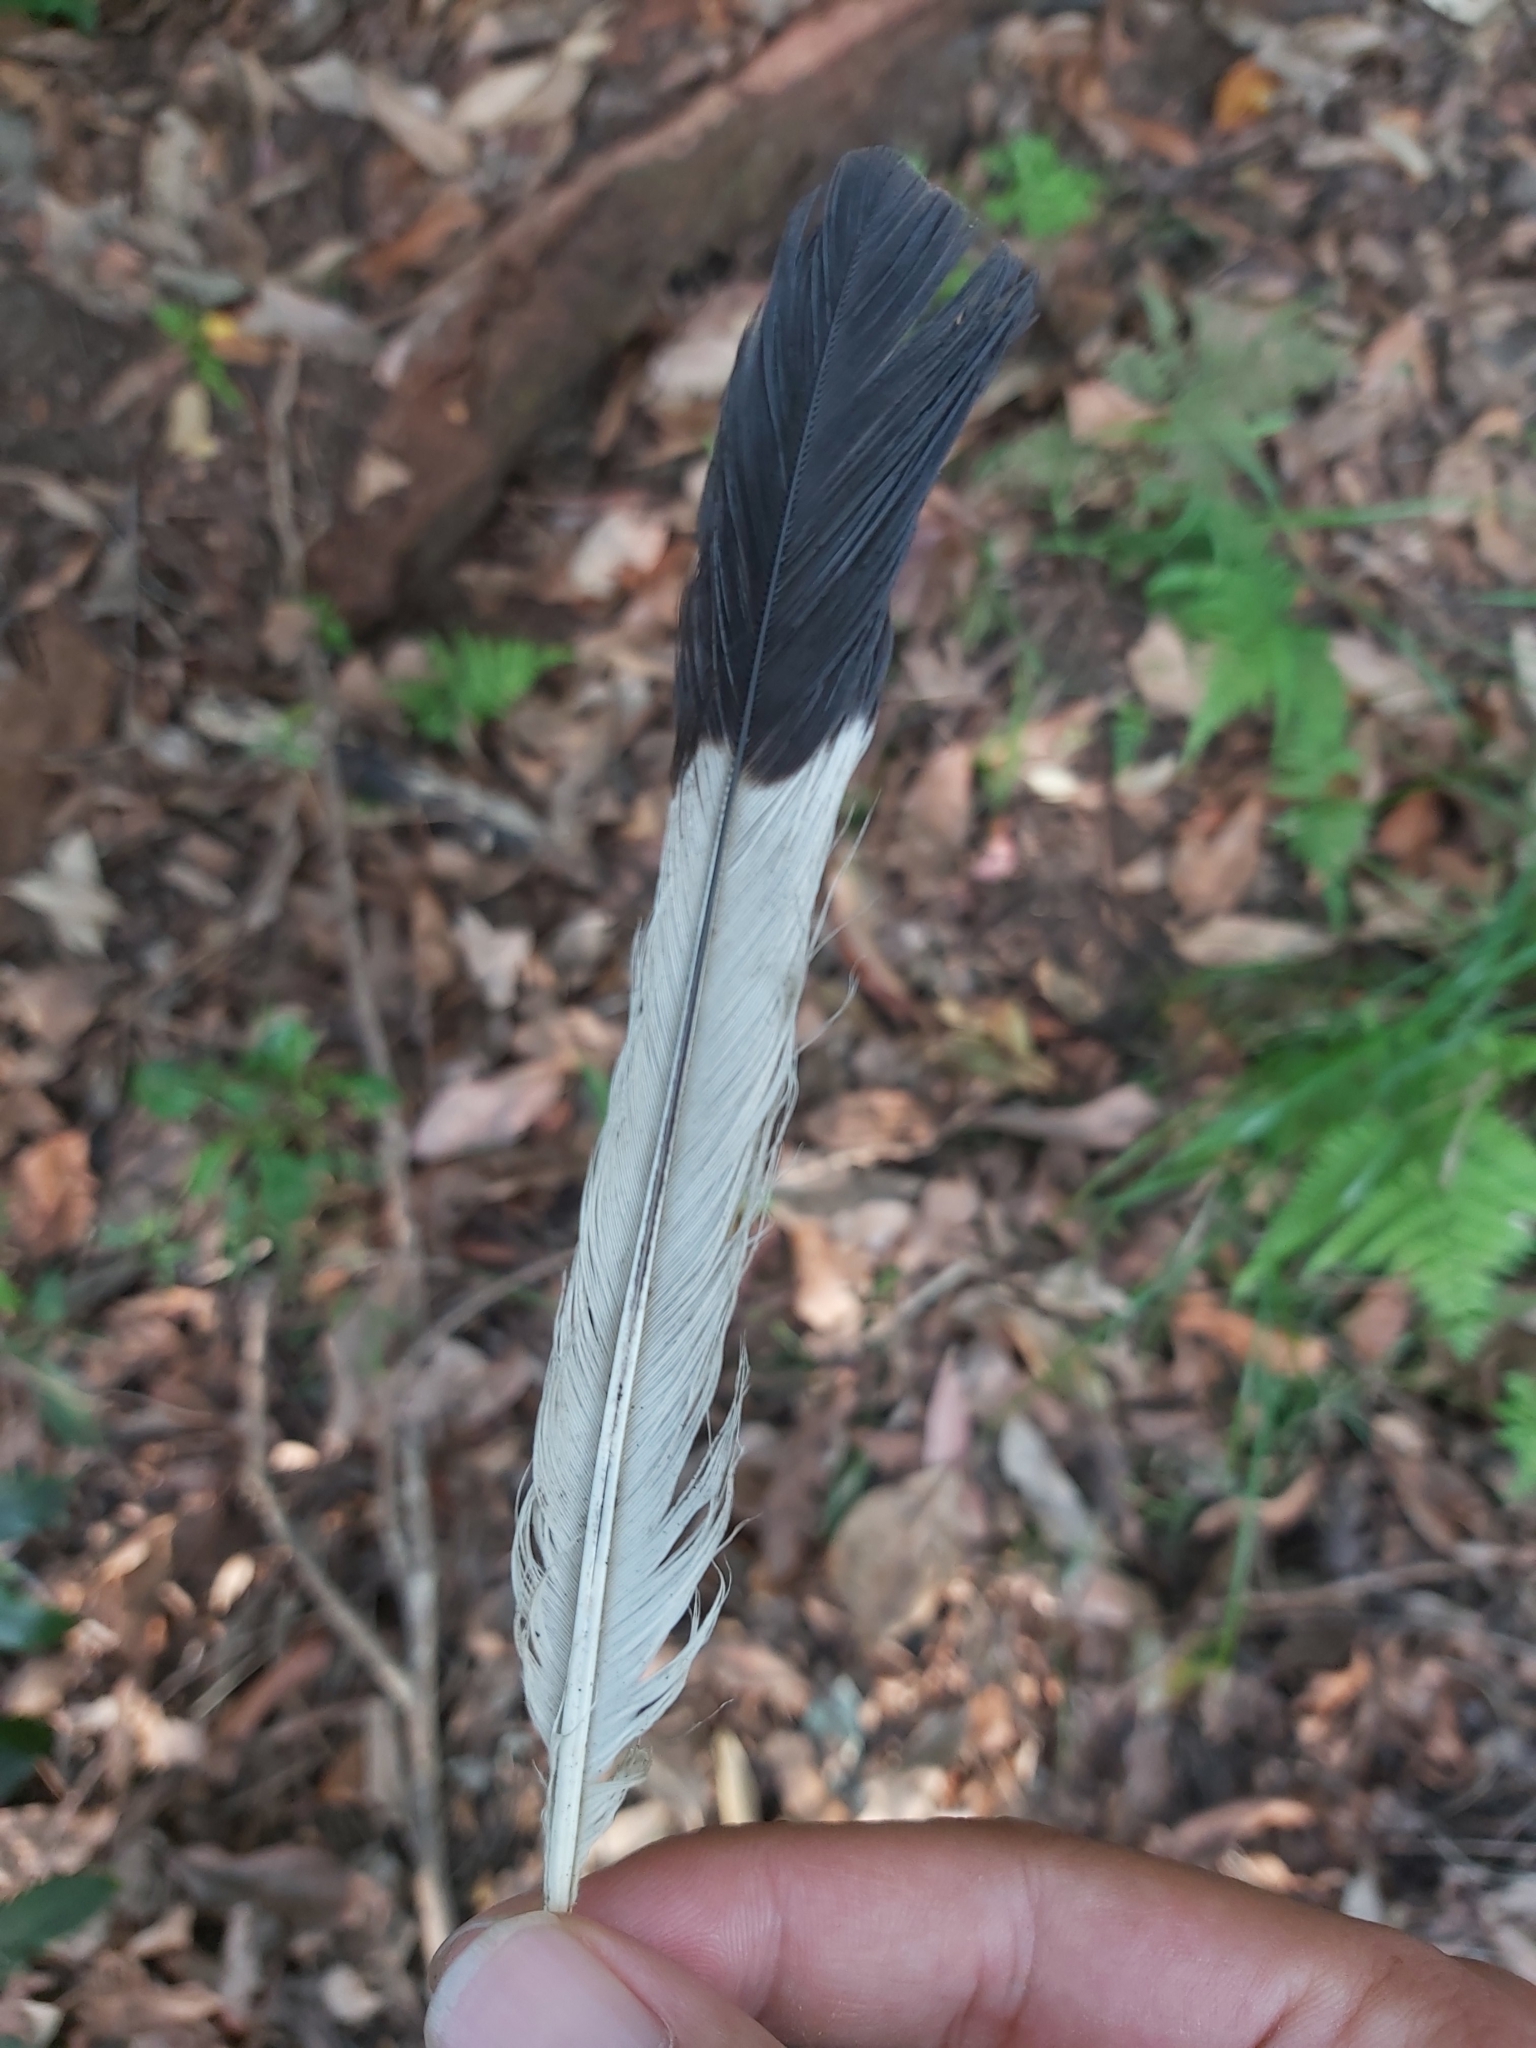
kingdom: Animalia
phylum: Chordata
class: Aves
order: Passeriformes
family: Cracticidae
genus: Gymnorhina
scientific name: Gymnorhina tibicen
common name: Australian magpie
